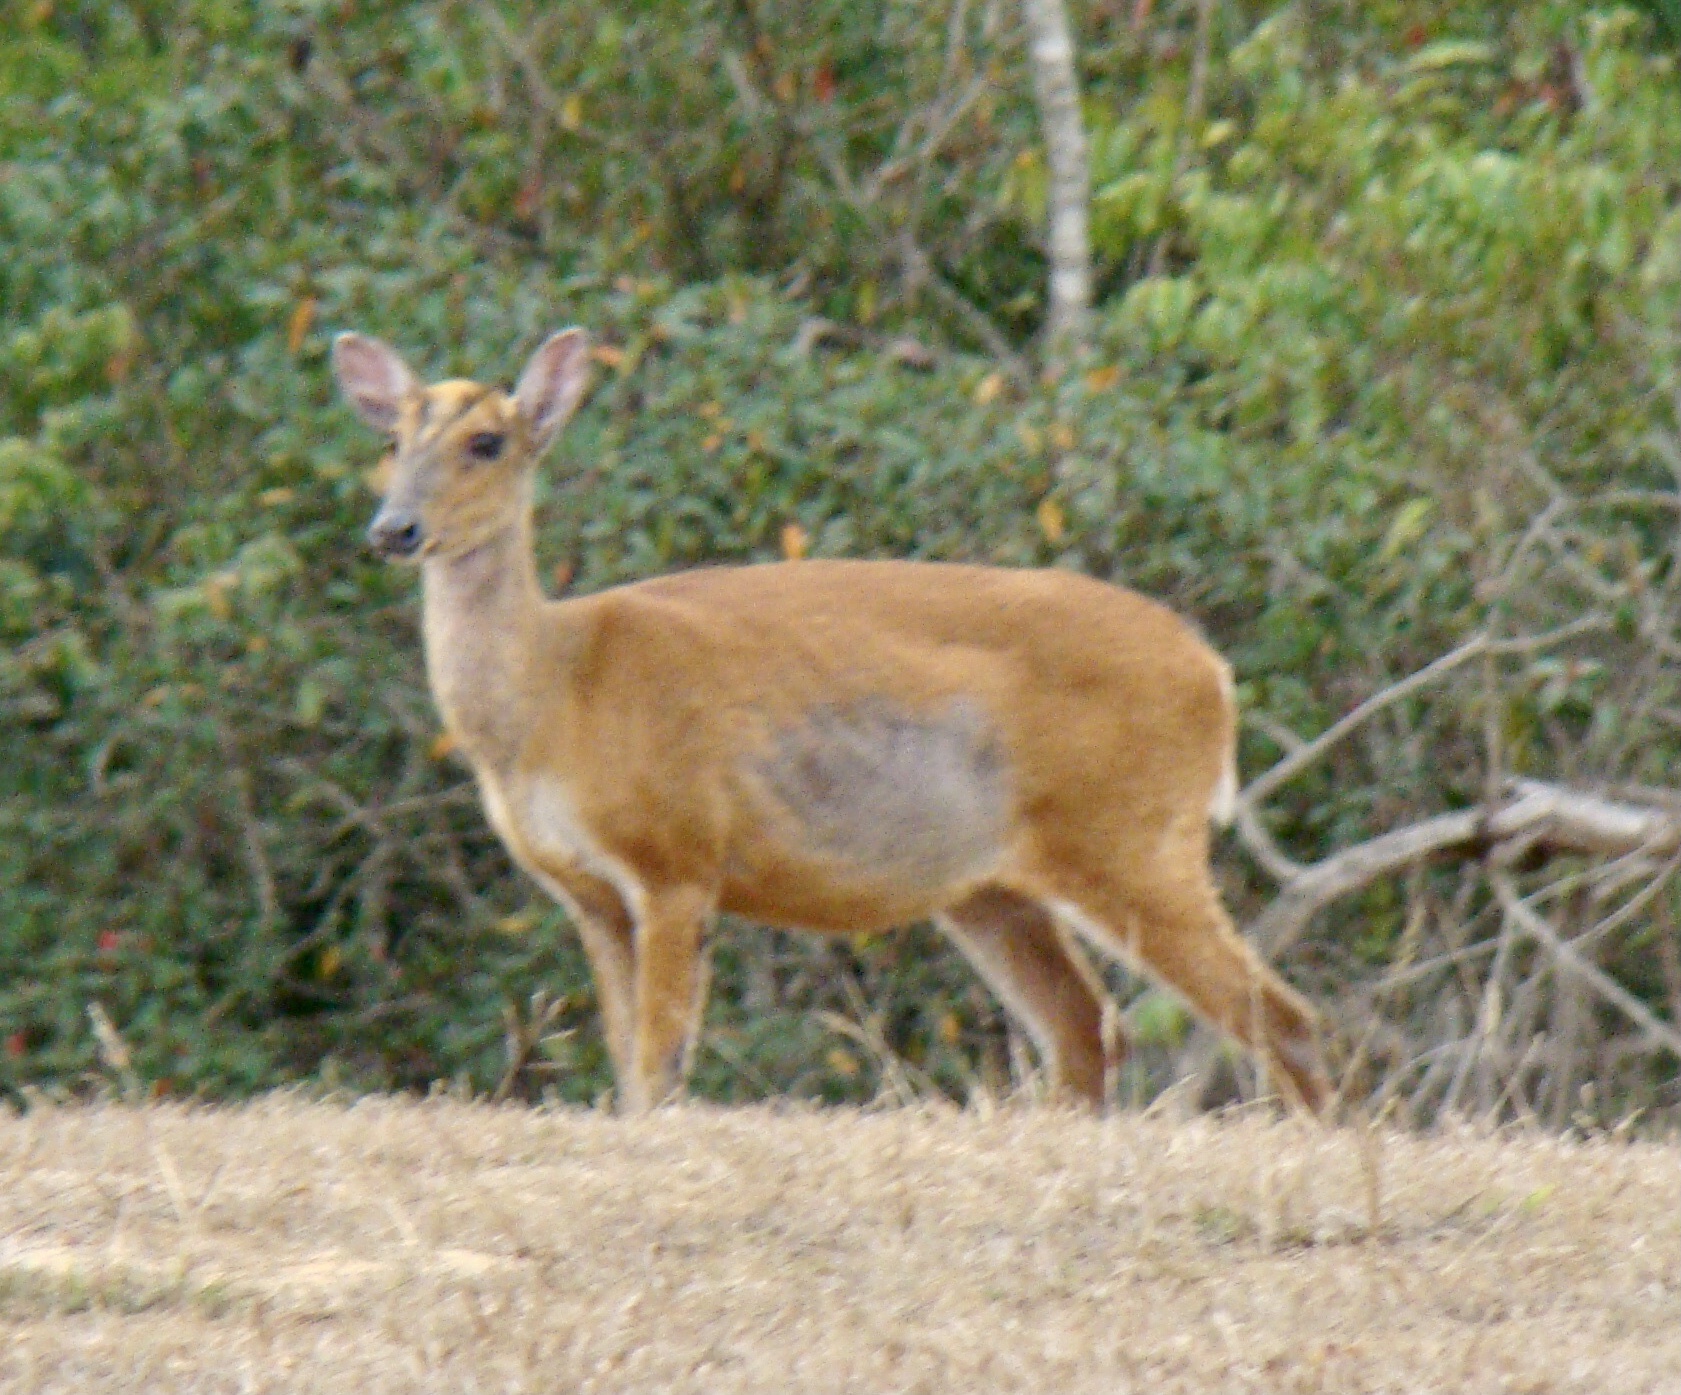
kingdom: Animalia
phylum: Chordata
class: Mammalia
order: Artiodactyla
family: Cervidae
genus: Muntiacus
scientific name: Muntiacus muntjak
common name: Indian muntjac
